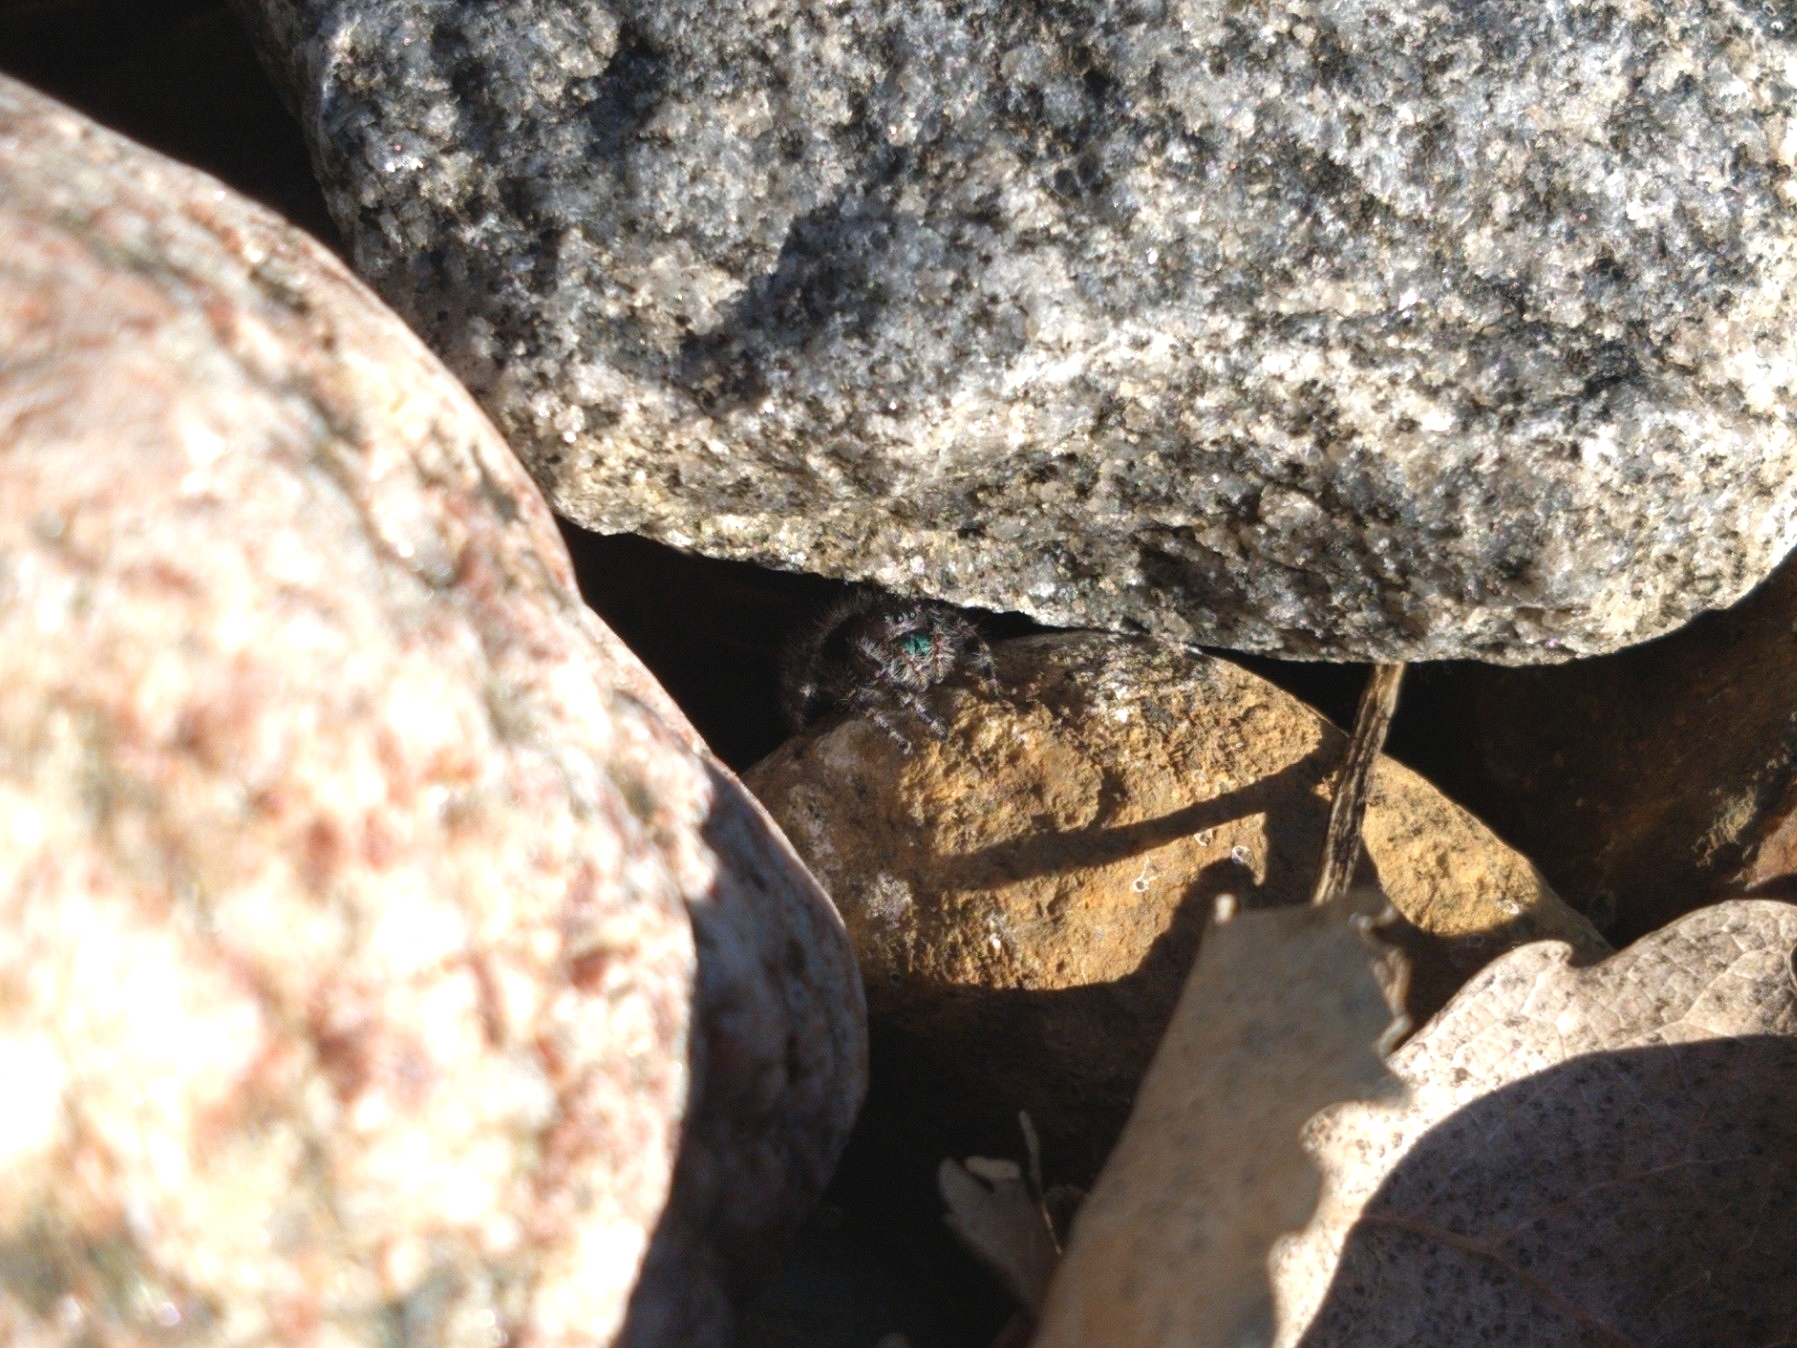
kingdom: Animalia
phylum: Arthropoda
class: Arachnida
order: Araneae
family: Salticidae
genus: Phidippus
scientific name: Phidippus audax
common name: Bold jumper
